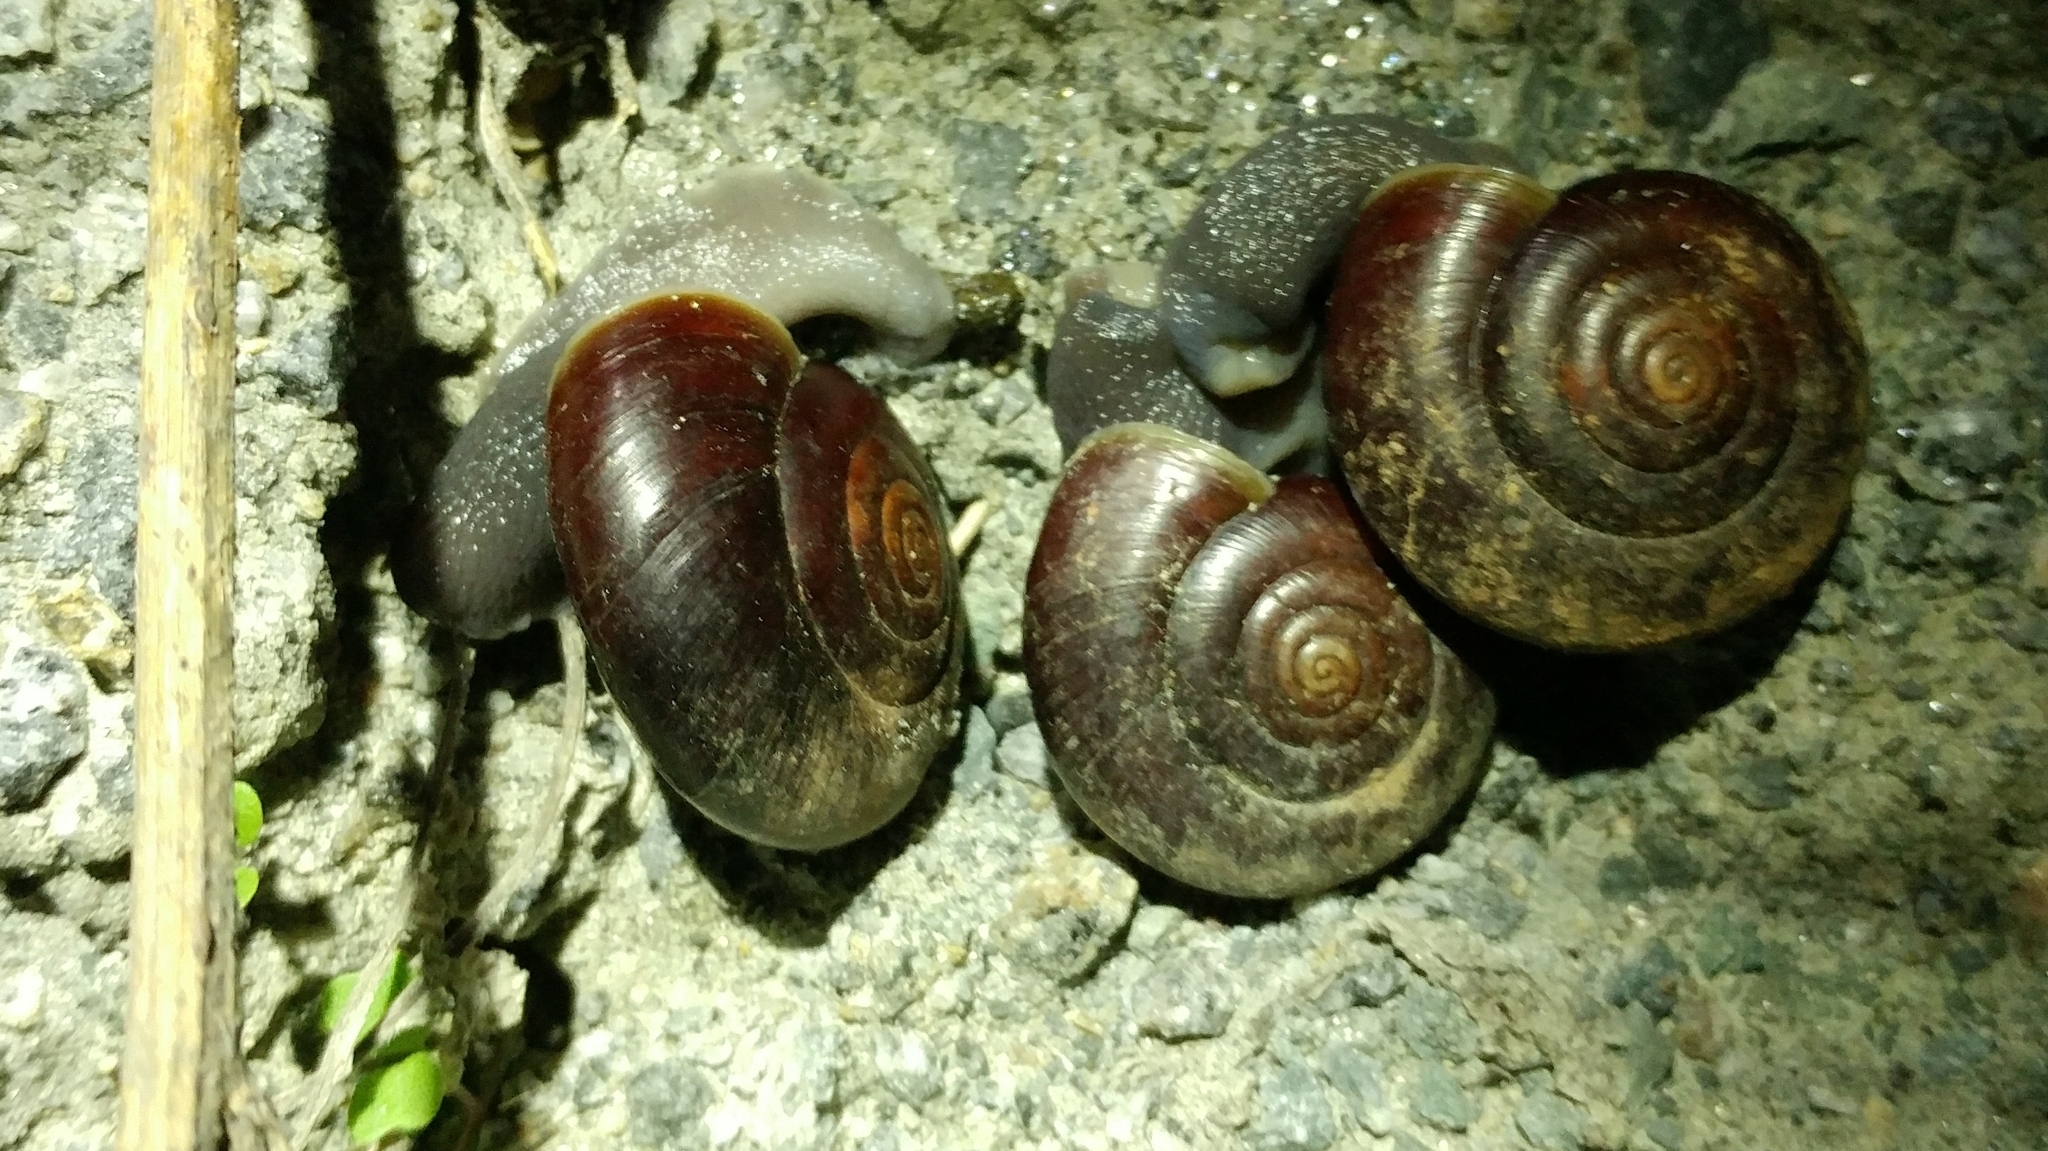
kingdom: Animalia
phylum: Mollusca
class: Gastropoda
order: Stylommatophora
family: Megomphicidae
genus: Glyptostoma
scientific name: Glyptostoma newberryanum
